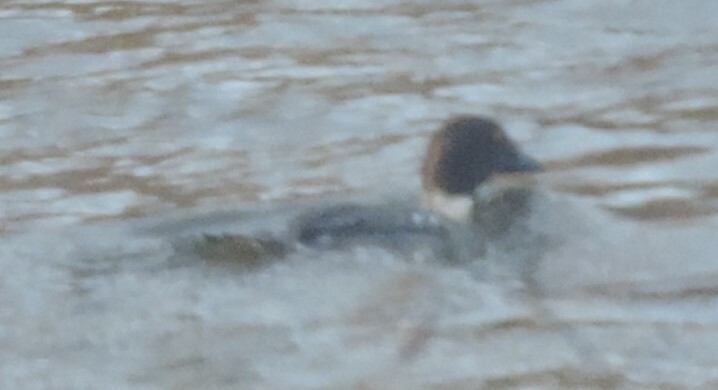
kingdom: Animalia
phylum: Chordata
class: Aves
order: Anseriformes
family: Anatidae
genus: Bucephala
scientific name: Bucephala clangula
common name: Common goldeneye
